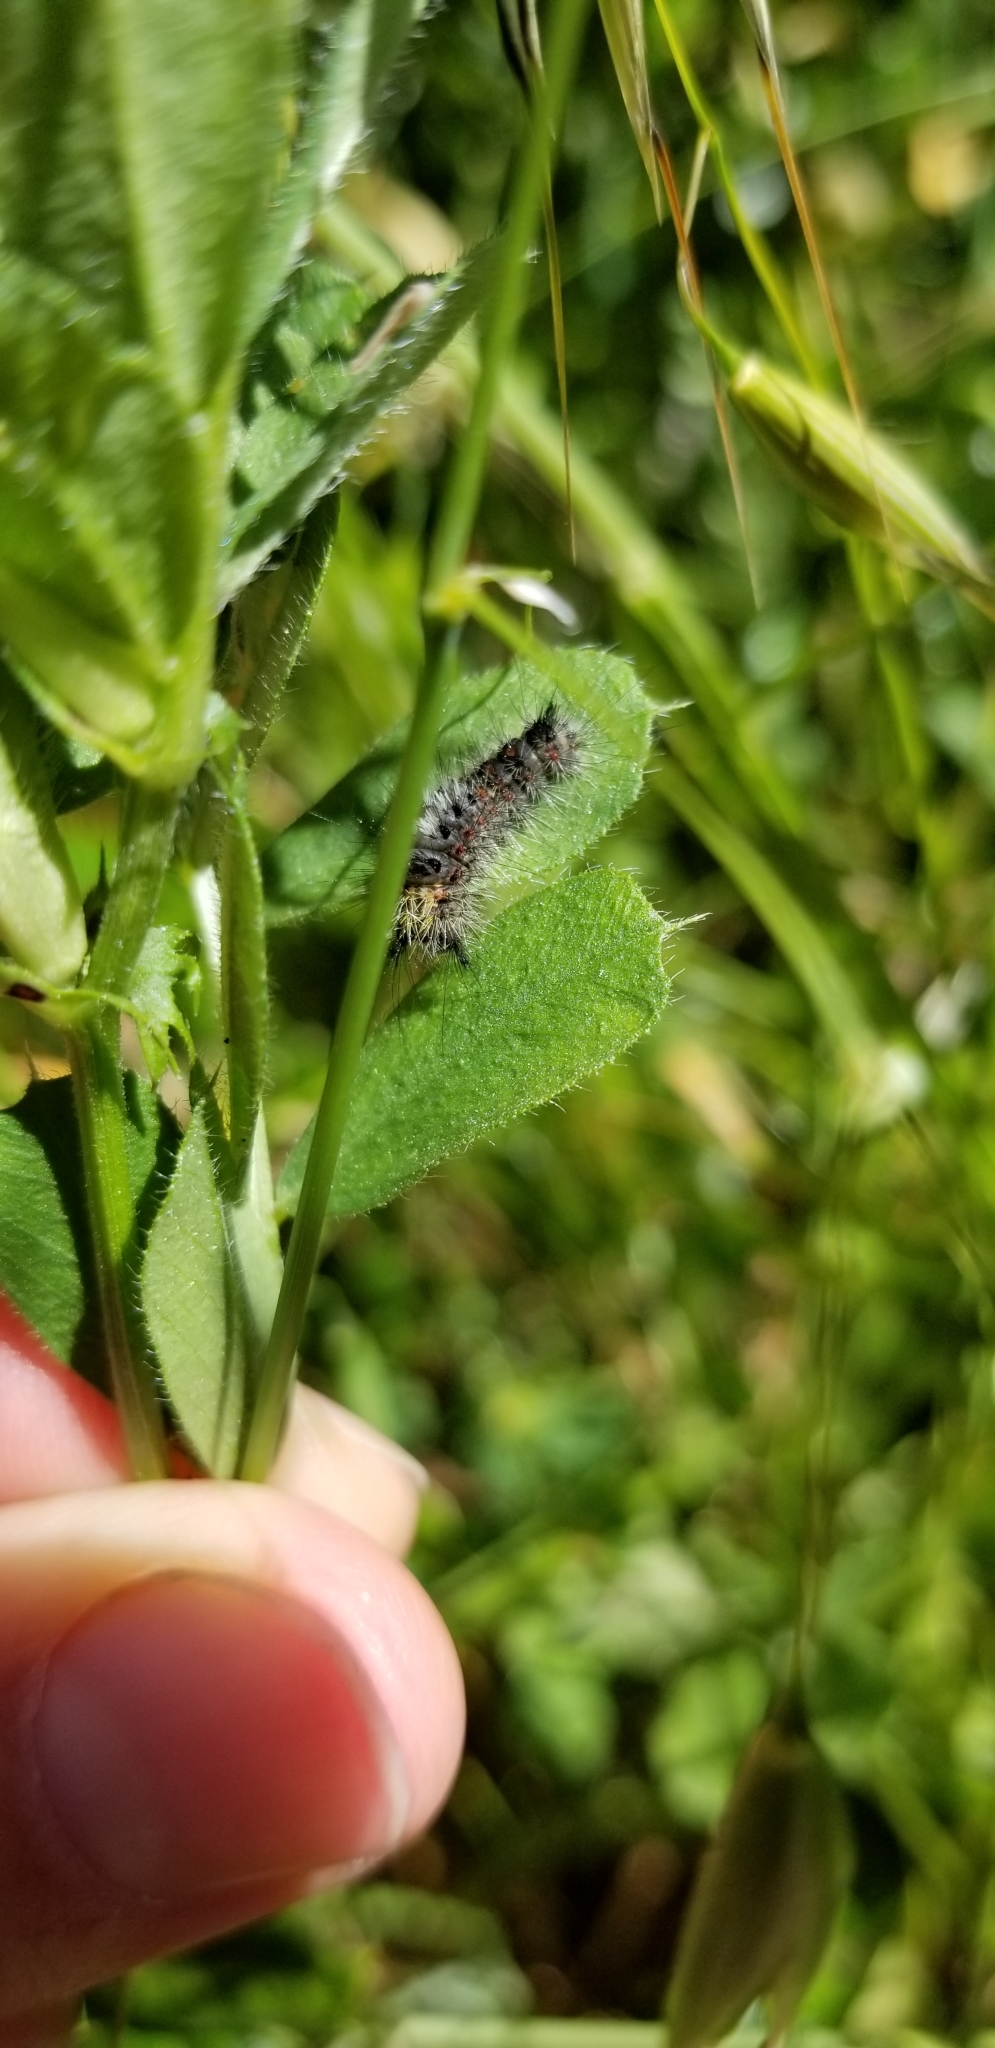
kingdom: Animalia
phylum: Arthropoda
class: Insecta
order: Lepidoptera
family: Erebidae
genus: Orgyia
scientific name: Orgyia
